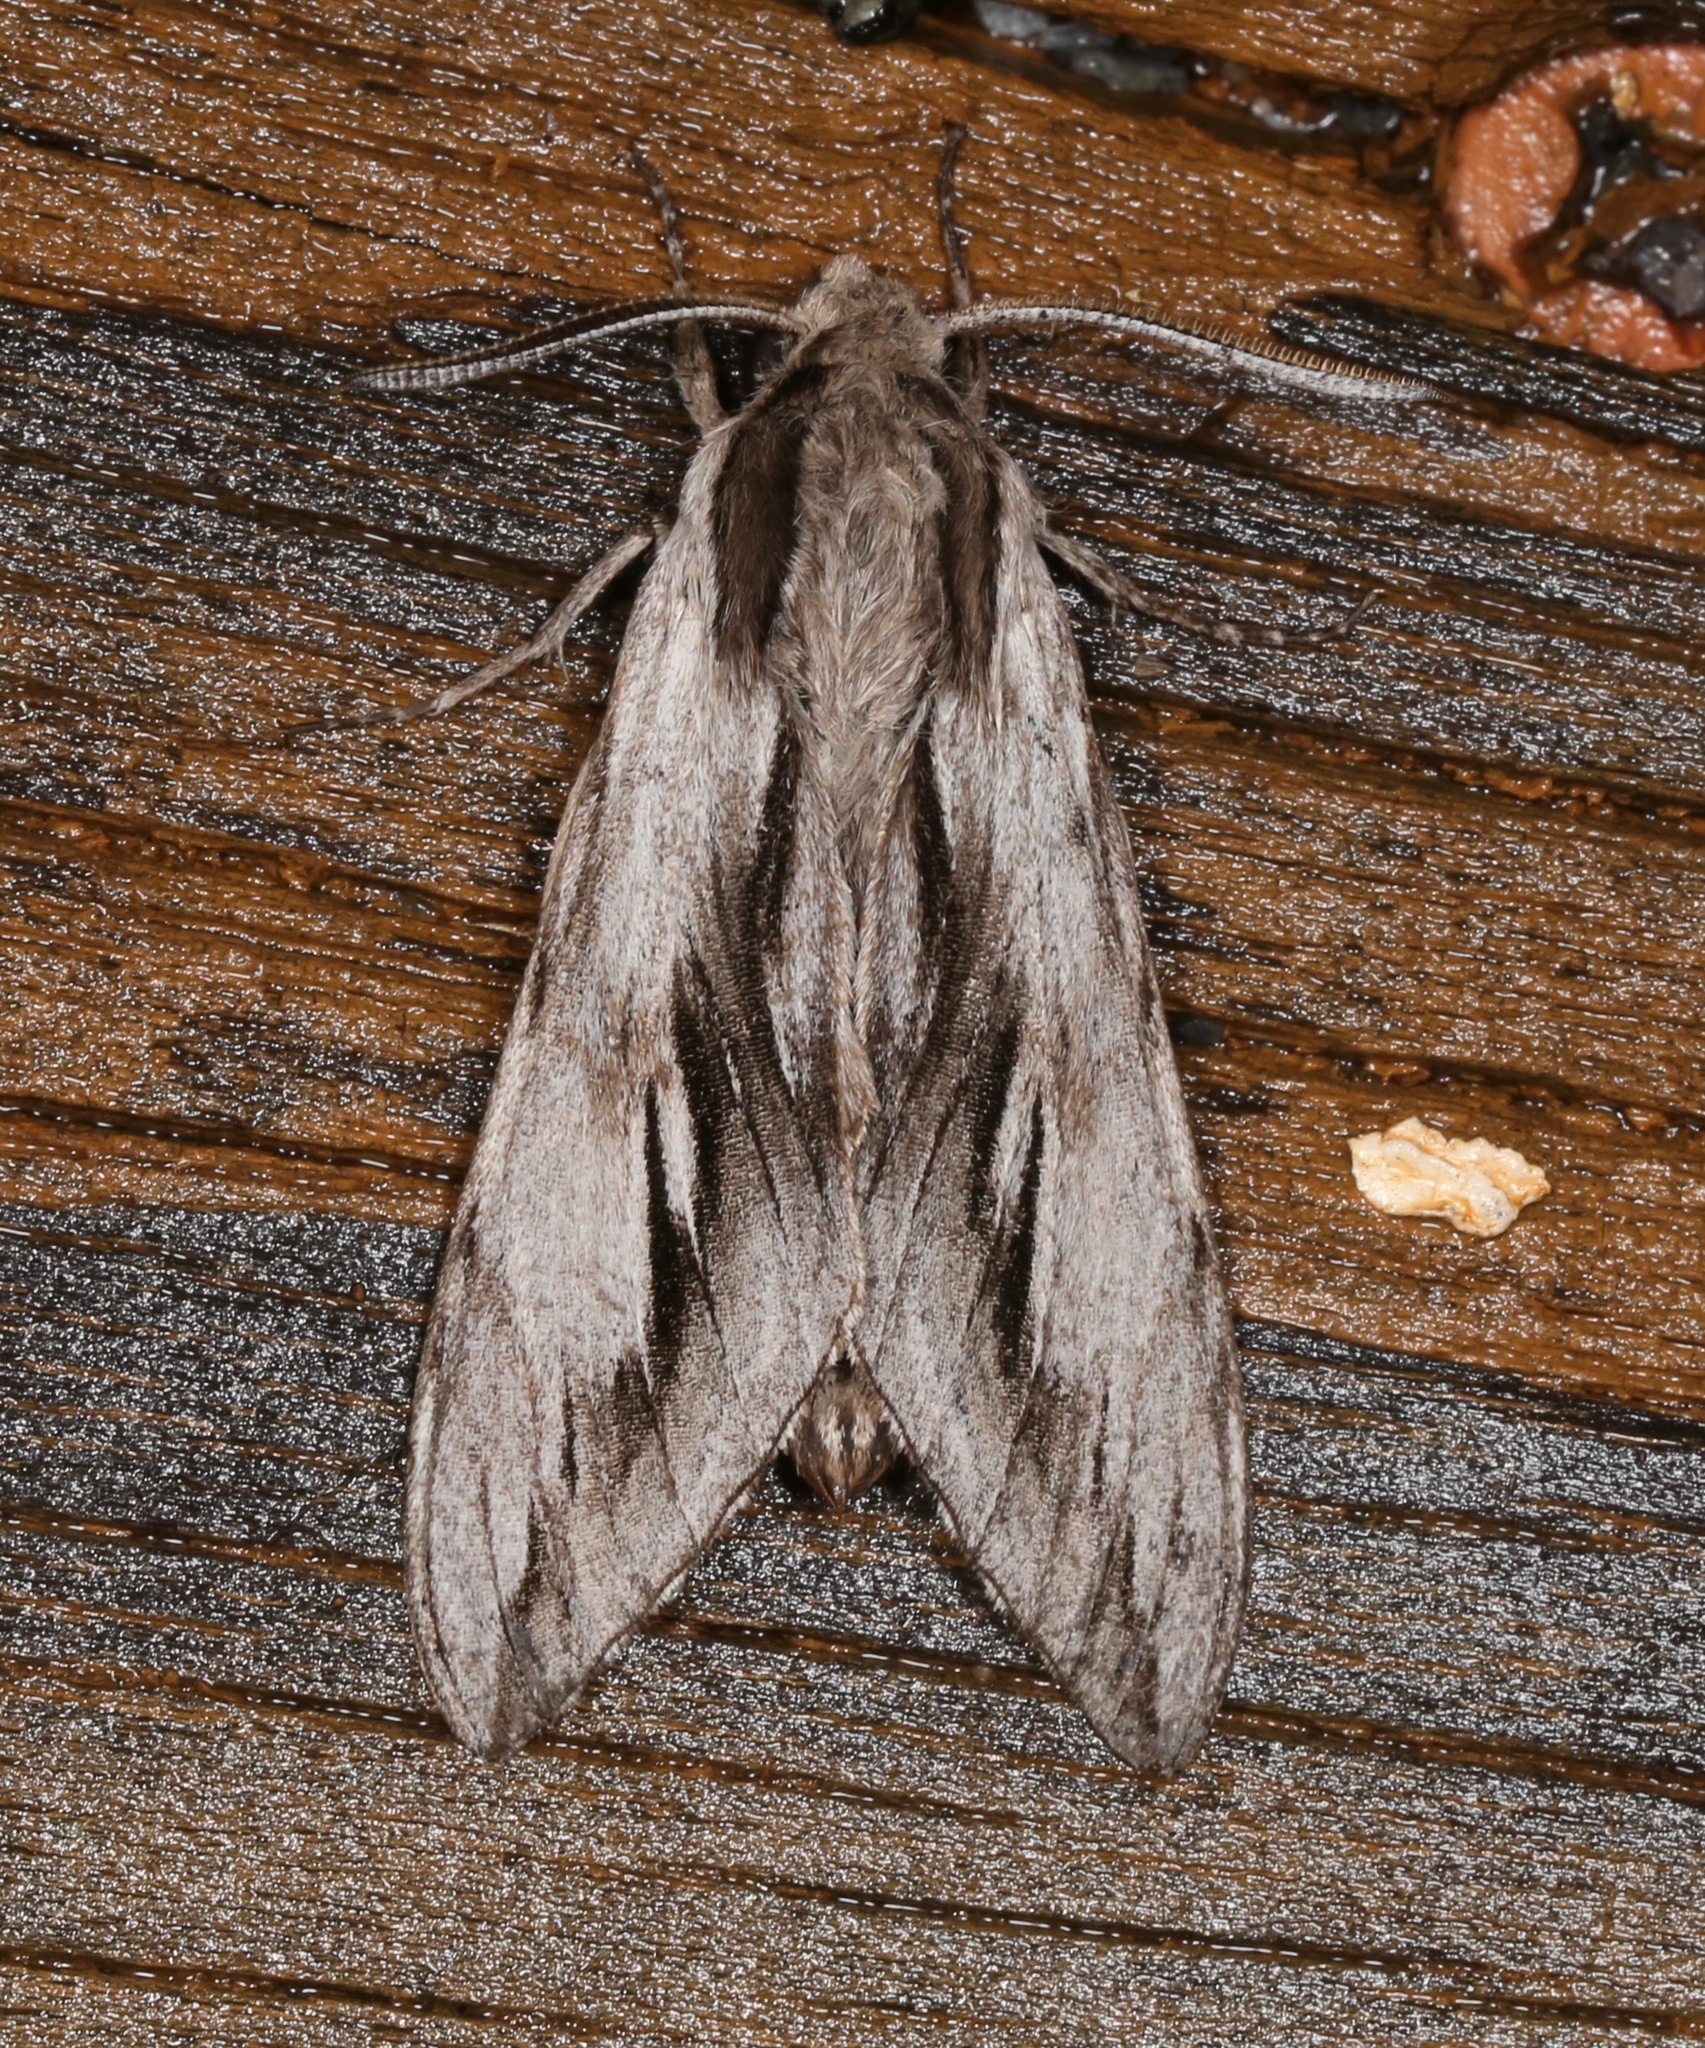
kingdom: Animalia
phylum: Arthropoda
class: Insecta
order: Lepidoptera
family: Sphingidae
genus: Sphinx
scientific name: Sphinx dollii
